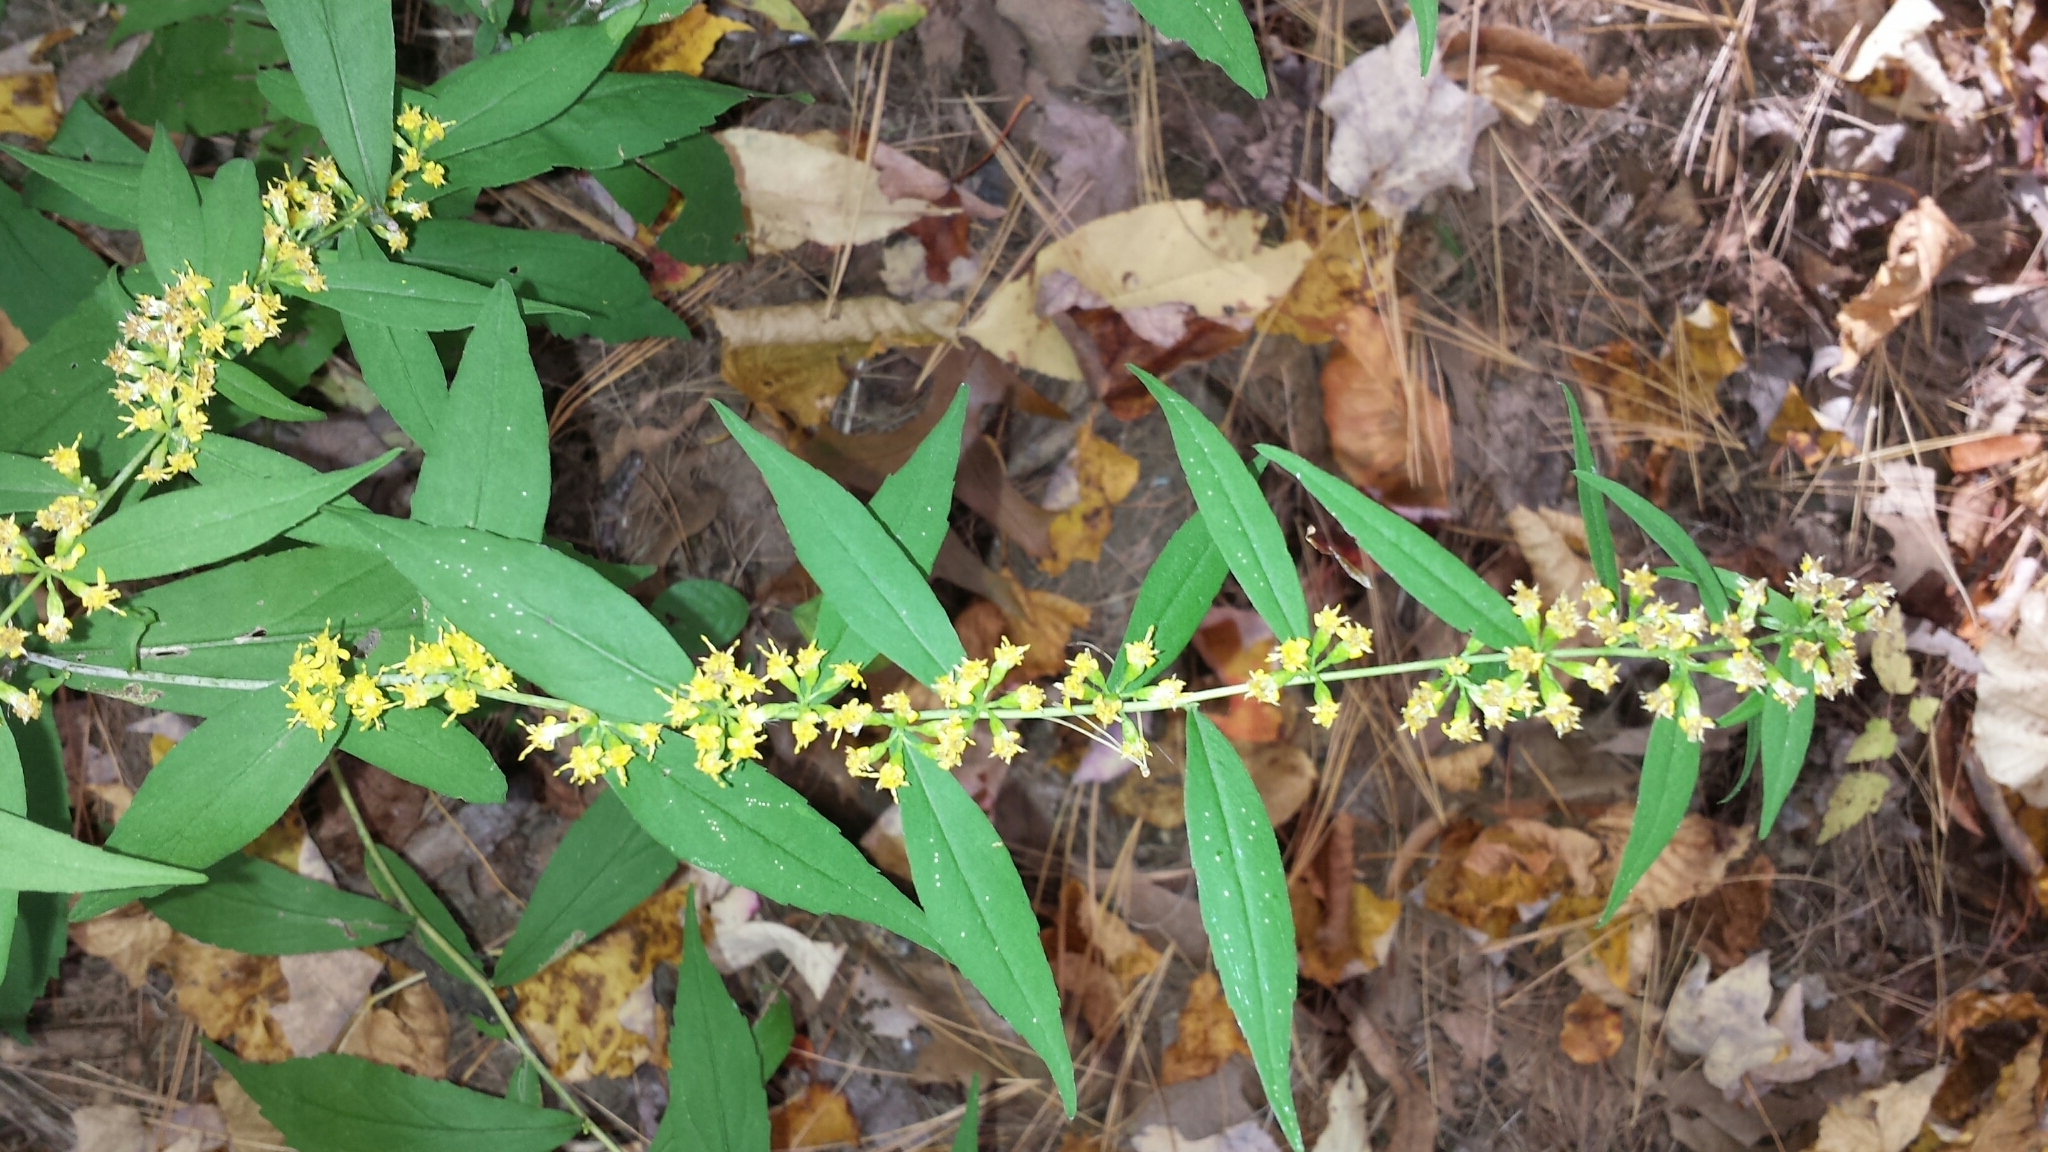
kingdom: Plantae
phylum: Tracheophyta
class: Magnoliopsida
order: Asterales
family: Asteraceae
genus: Solidago
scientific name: Solidago caesia
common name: Woodland goldenrod
